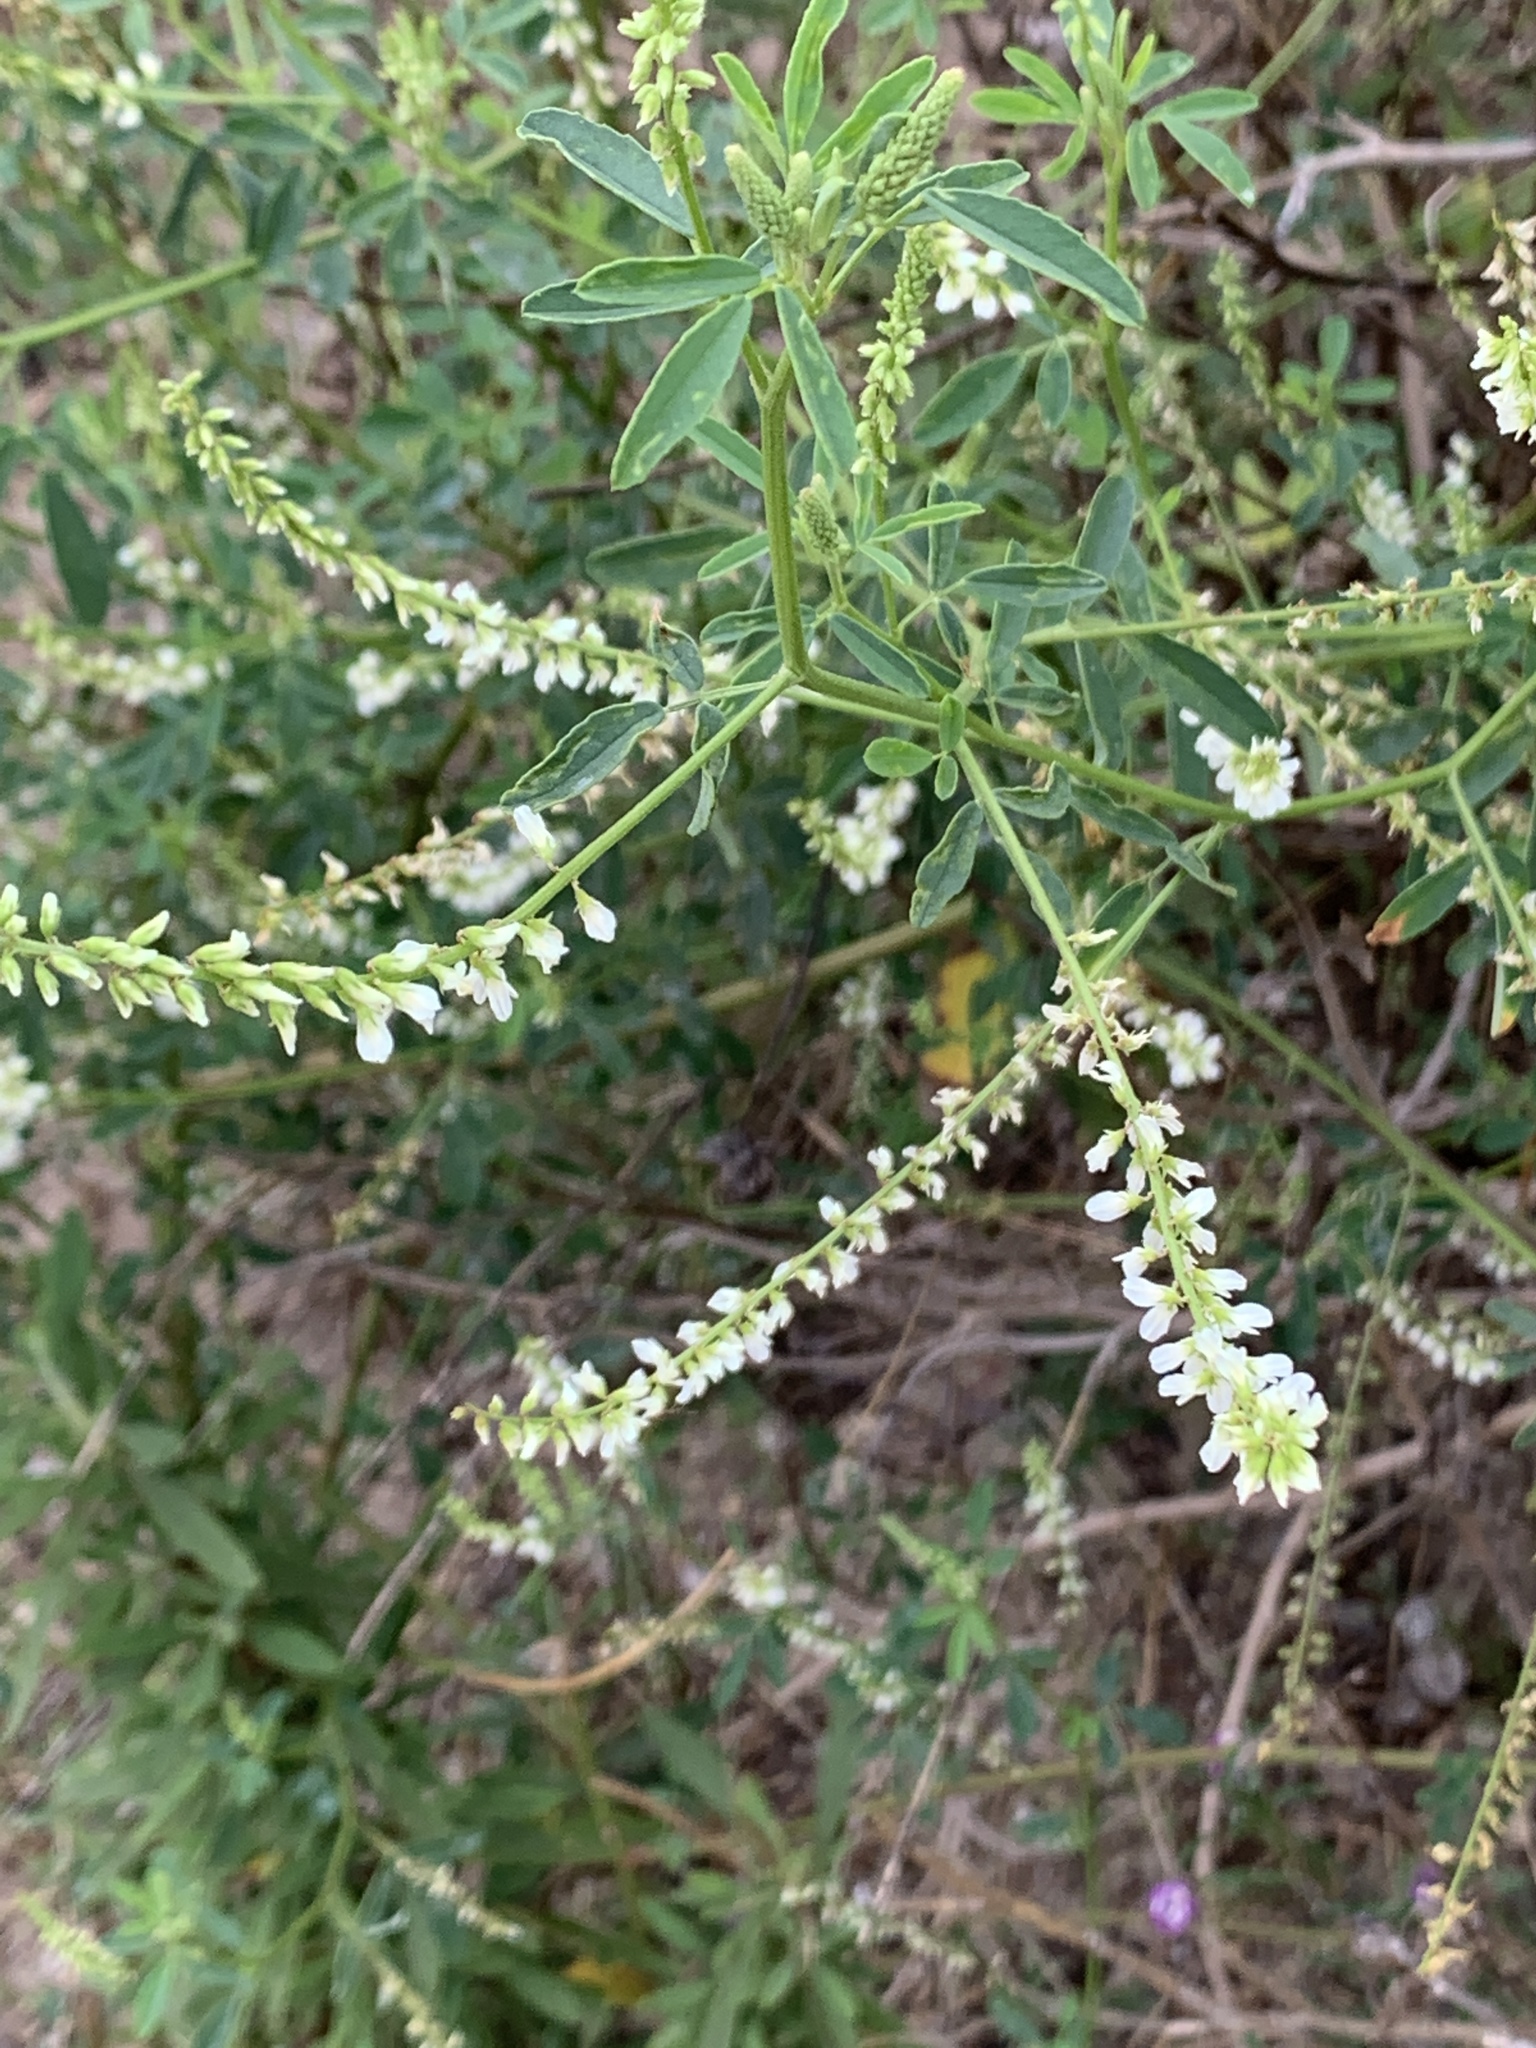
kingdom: Plantae
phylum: Tracheophyta
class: Magnoliopsida
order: Fabales
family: Fabaceae
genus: Melilotus
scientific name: Melilotus albus
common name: White melilot
